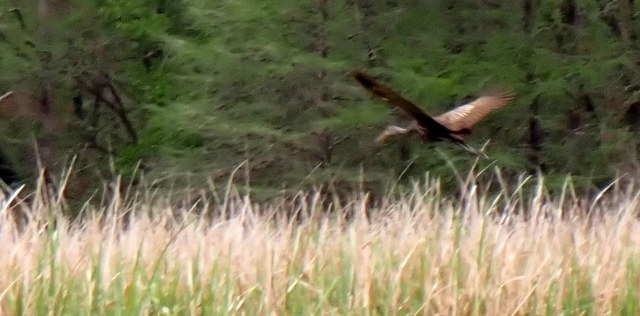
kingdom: Animalia
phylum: Chordata
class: Aves
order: Gruiformes
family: Aramidae
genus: Aramus
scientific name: Aramus guarauna
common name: Limpkin
